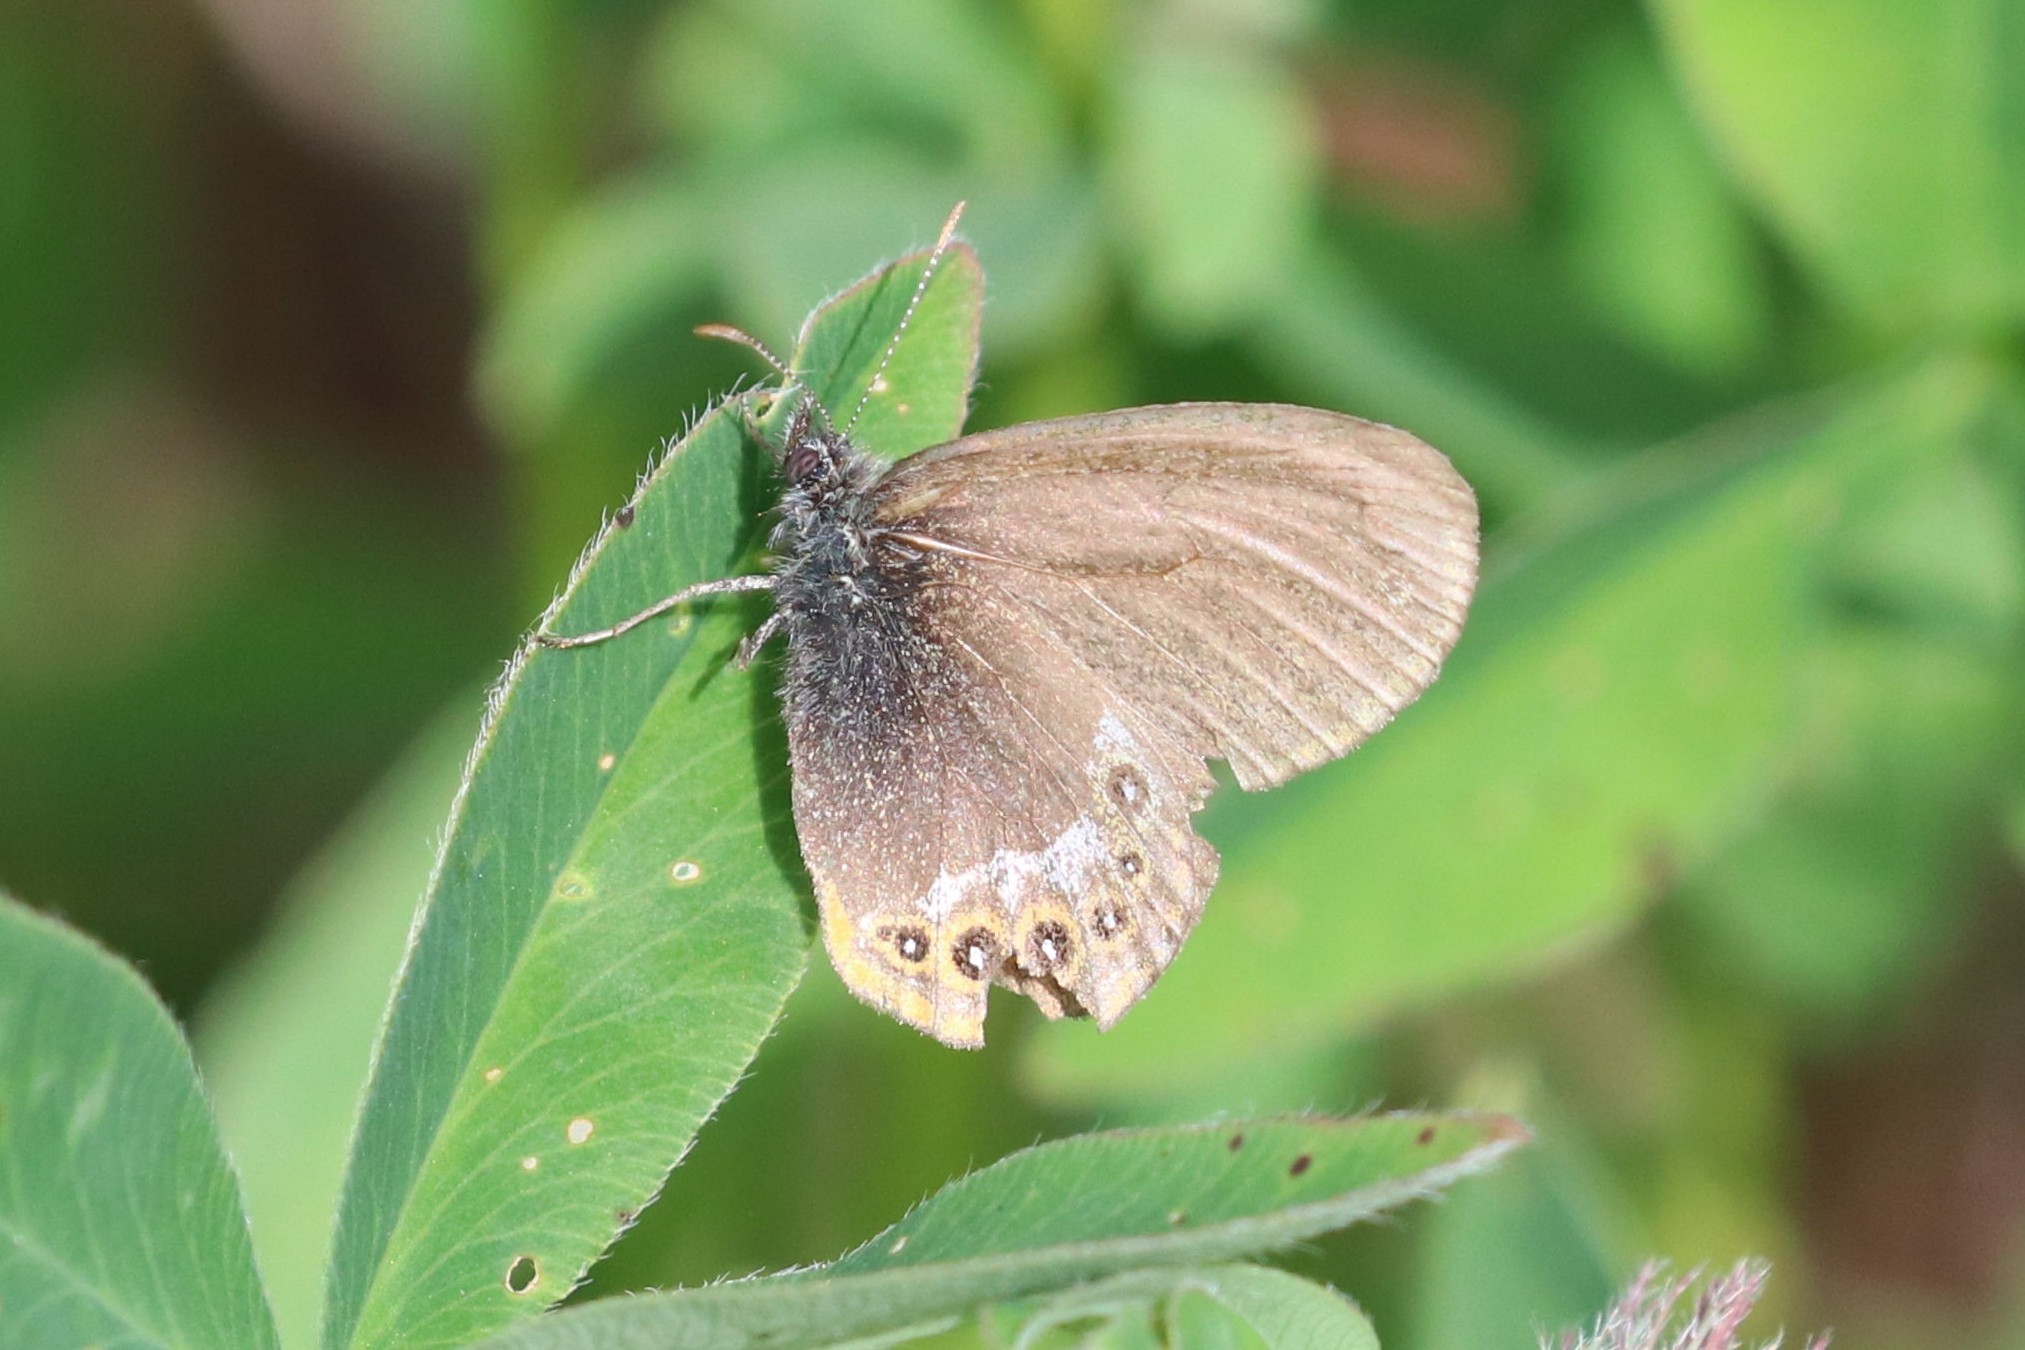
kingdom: Animalia
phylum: Arthropoda
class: Insecta
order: Lepidoptera
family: Nymphalidae
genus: Coenonympha
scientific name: Coenonympha arcania
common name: Pearly heath
